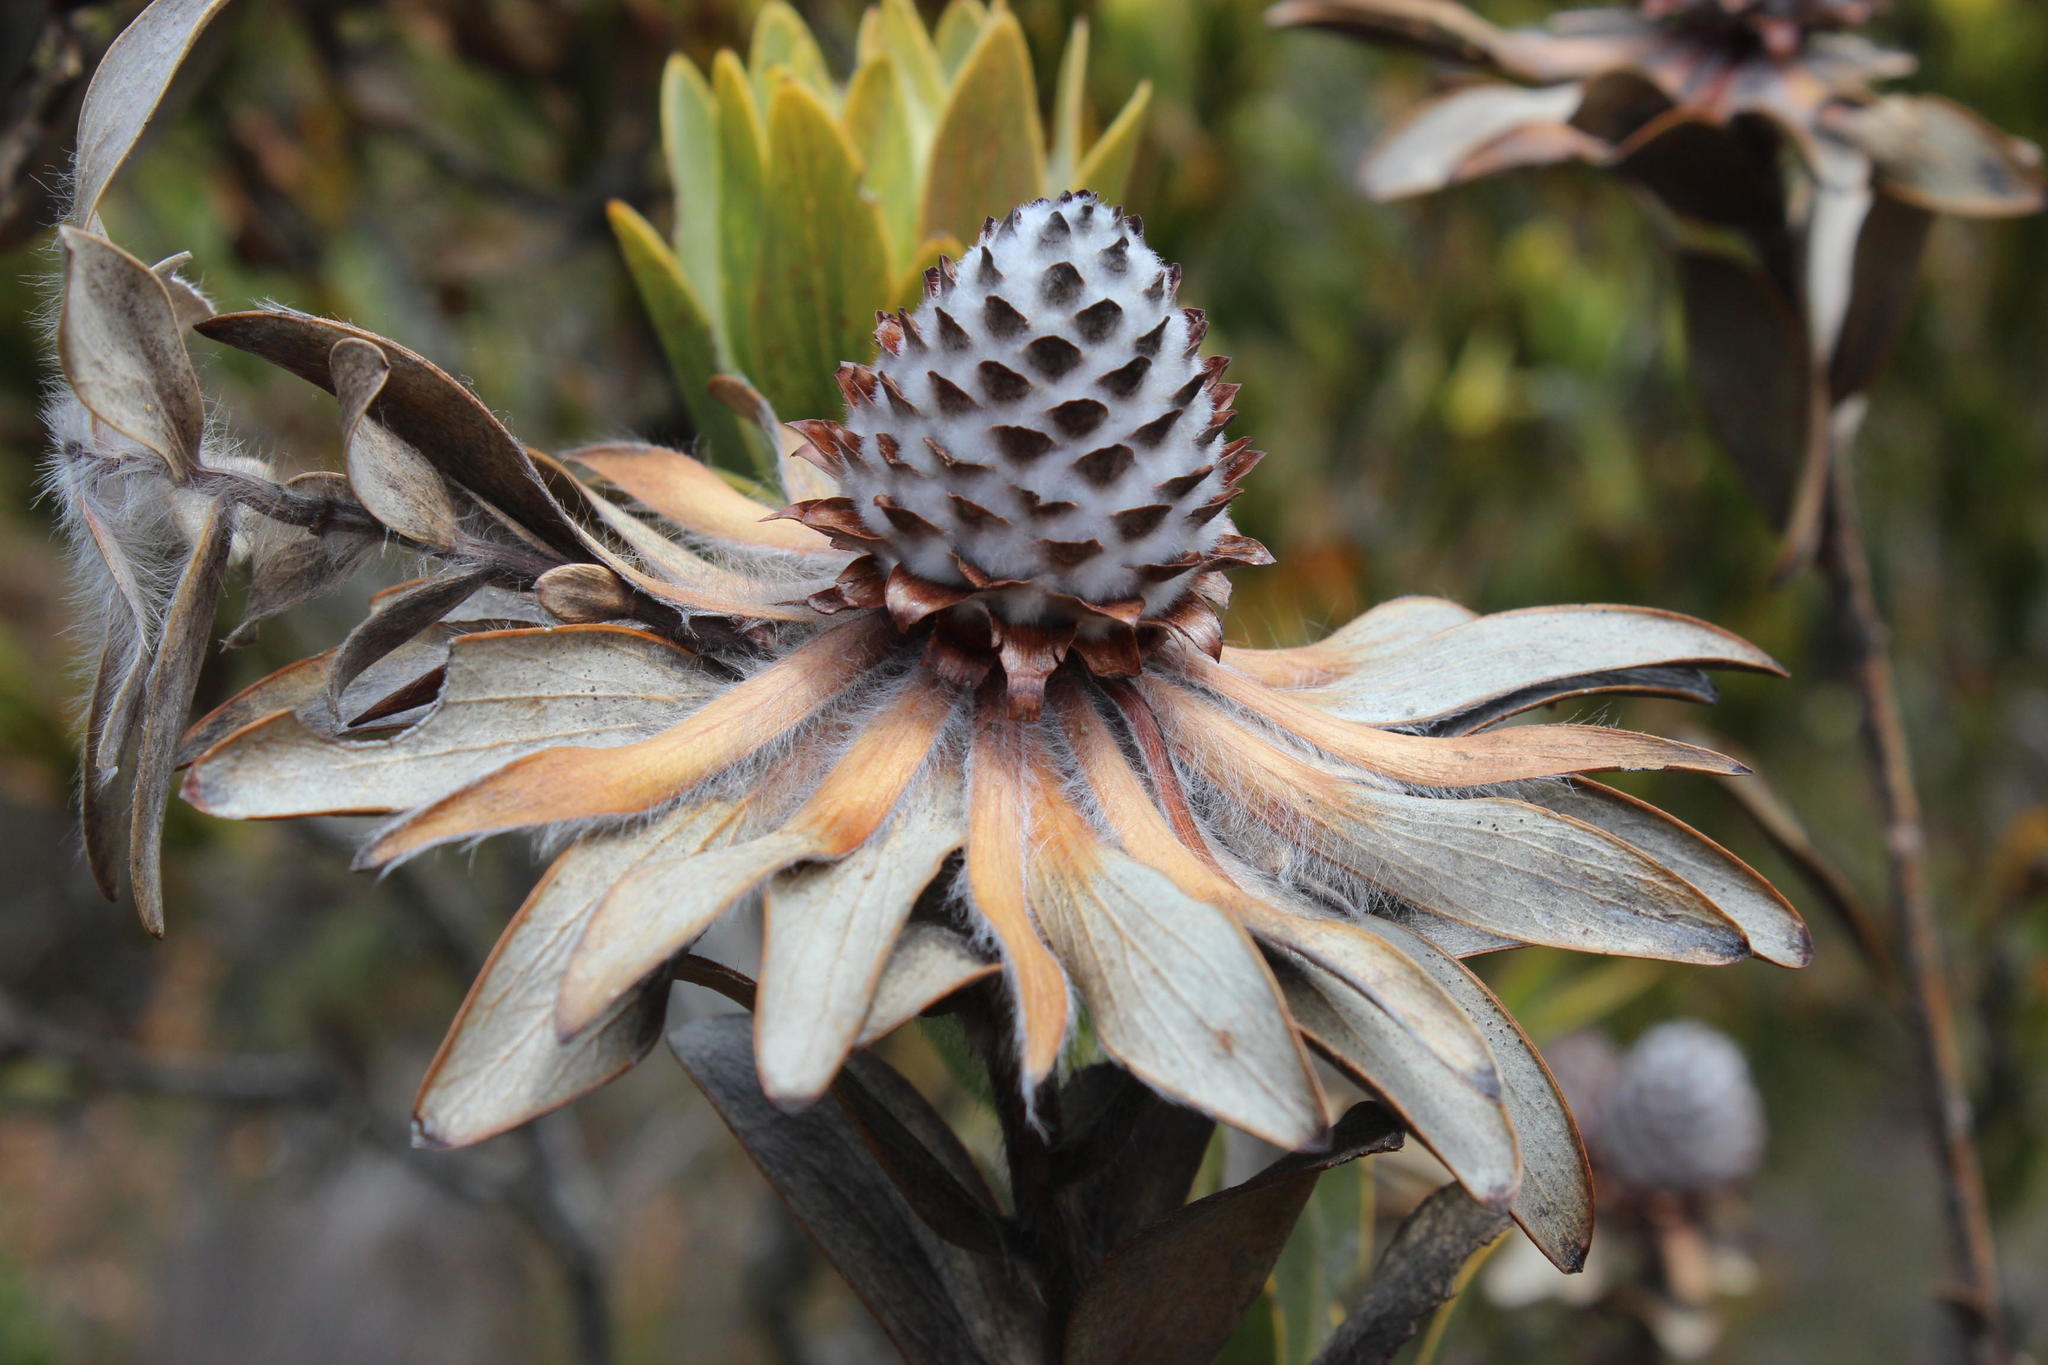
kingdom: Plantae
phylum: Tracheophyta
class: Magnoliopsida
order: Proteales
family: Proteaceae
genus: Leucadendron
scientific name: Leucadendron nervosum
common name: Silky-ruff conebush
